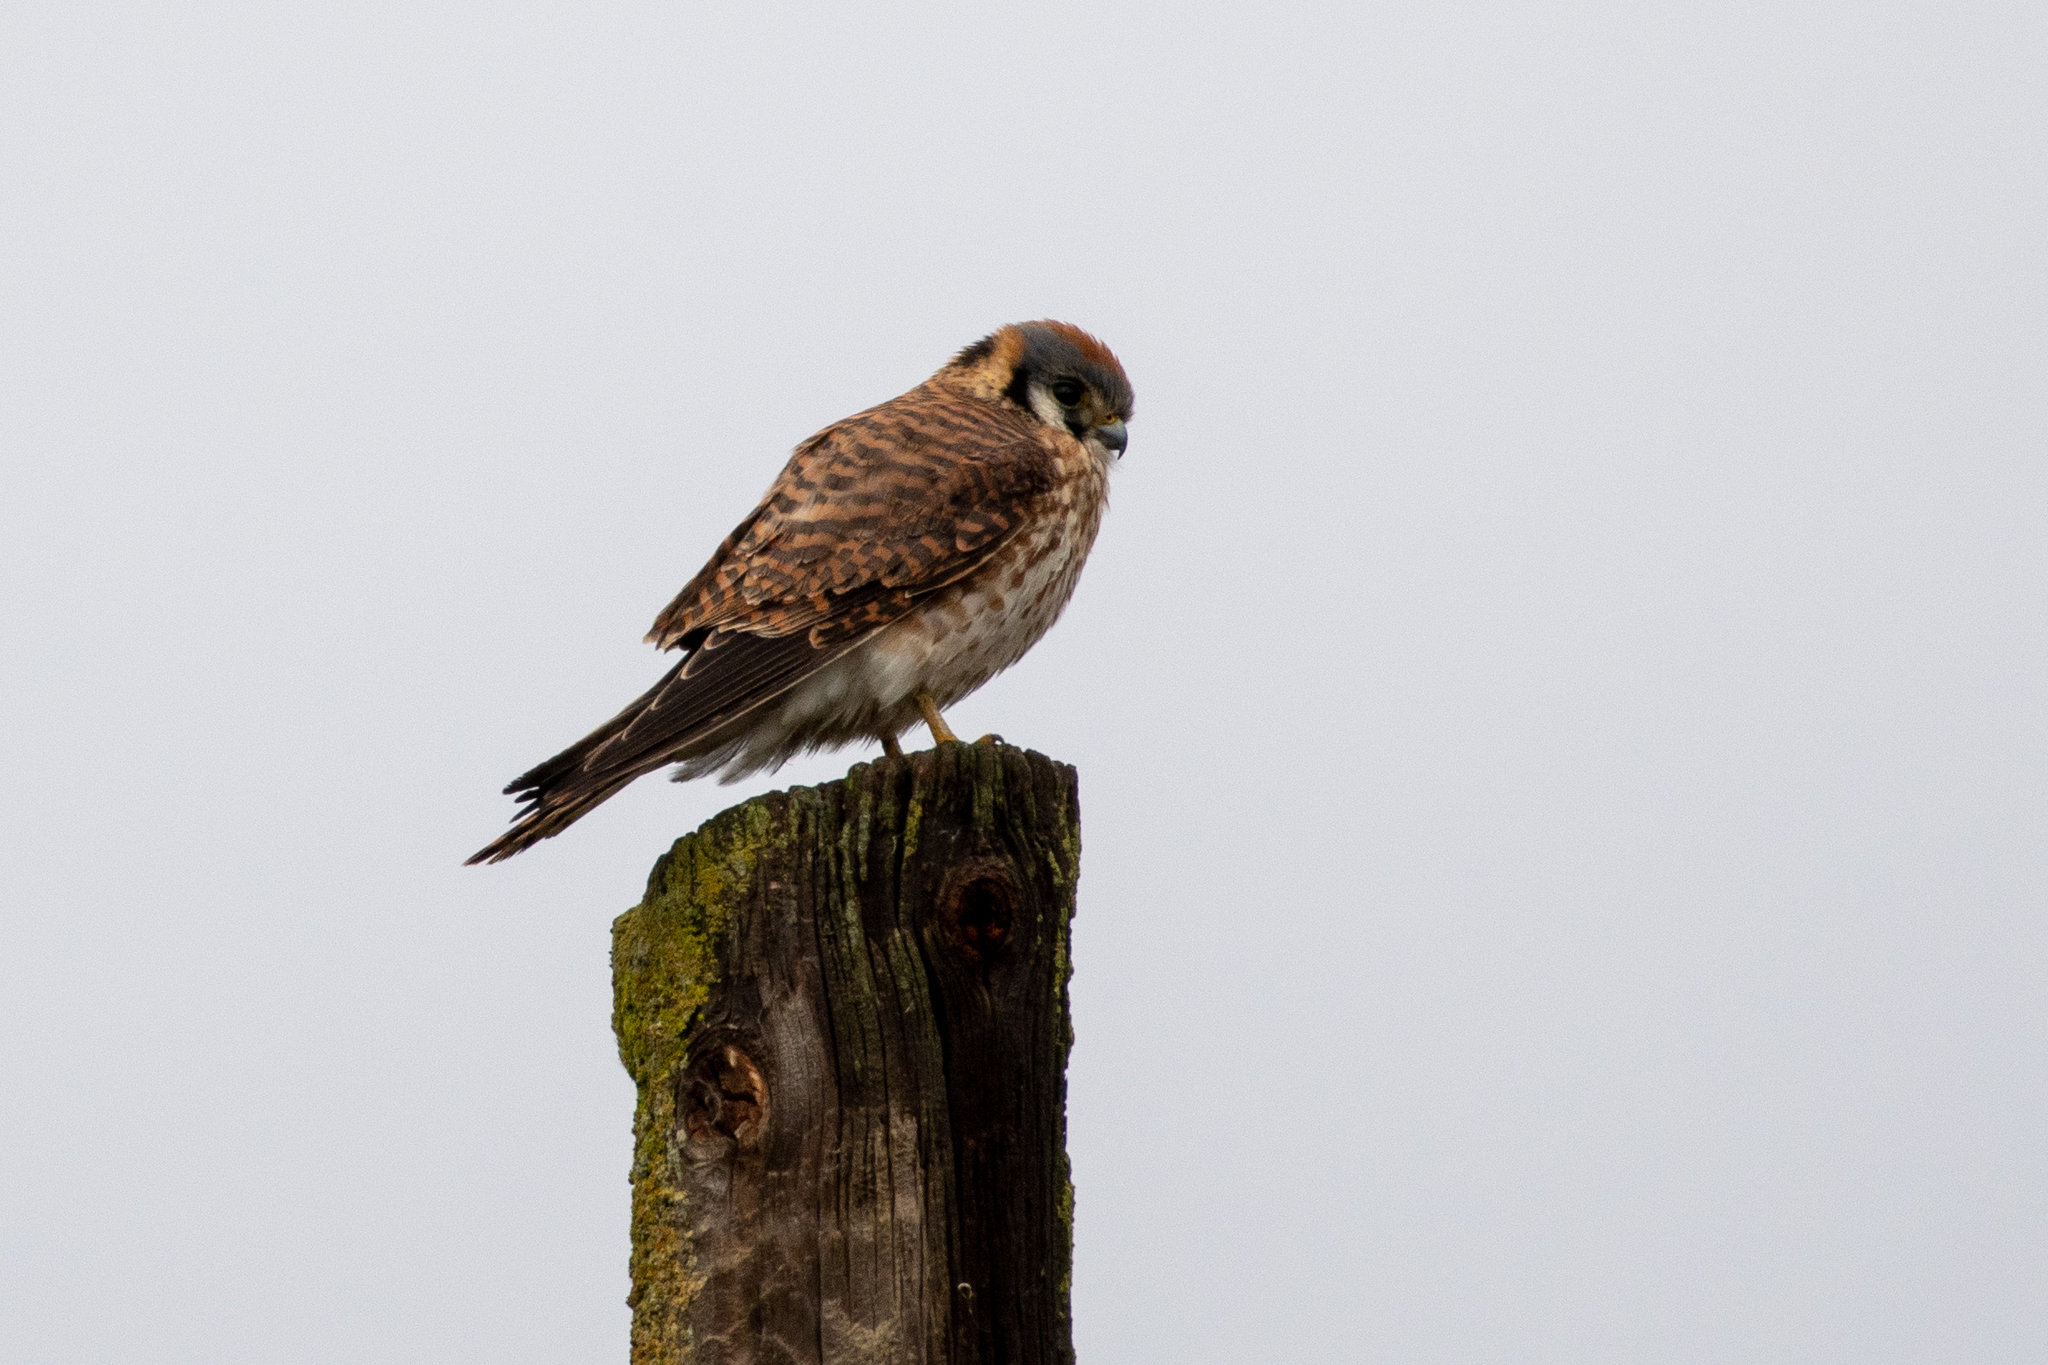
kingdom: Animalia
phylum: Chordata
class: Aves
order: Falconiformes
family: Falconidae
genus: Falco
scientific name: Falco sparverius
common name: American kestrel
